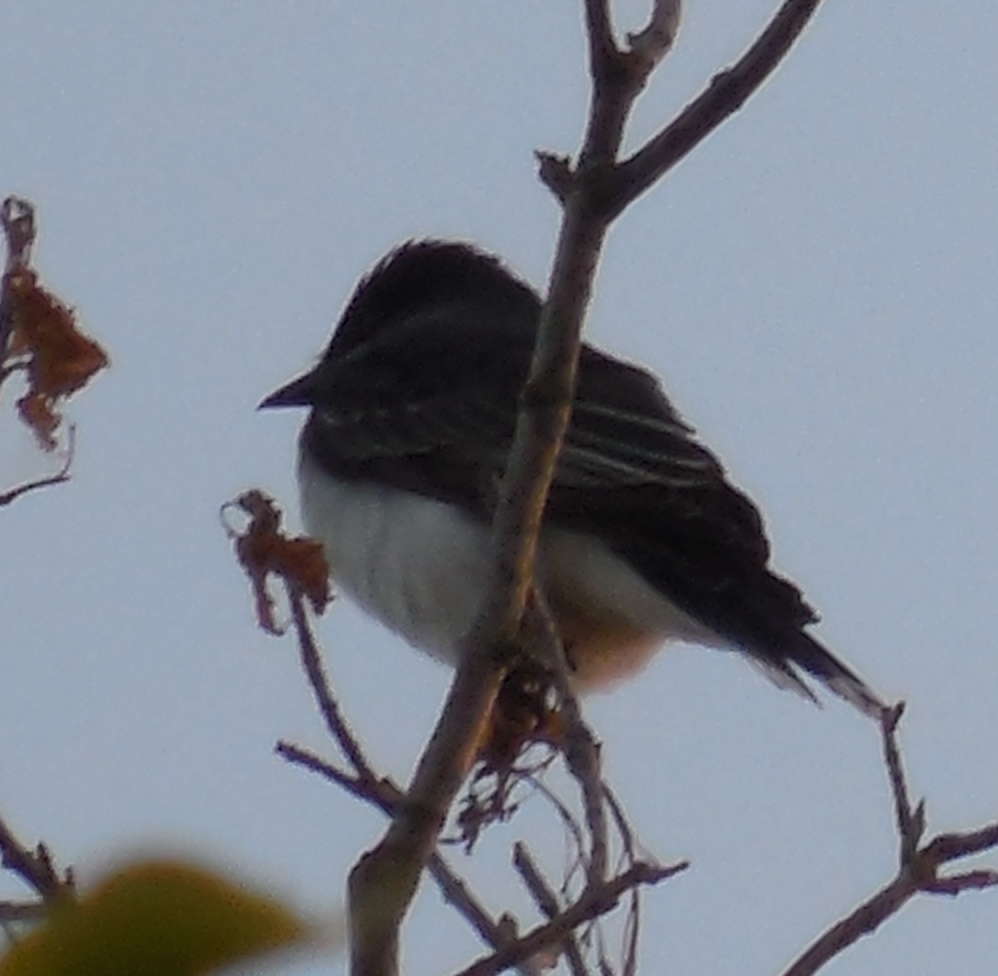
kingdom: Animalia
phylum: Chordata
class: Aves
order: Passeriformes
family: Tyrannidae
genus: Tyrannus
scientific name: Tyrannus tyrannus
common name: Eastern kingbird
